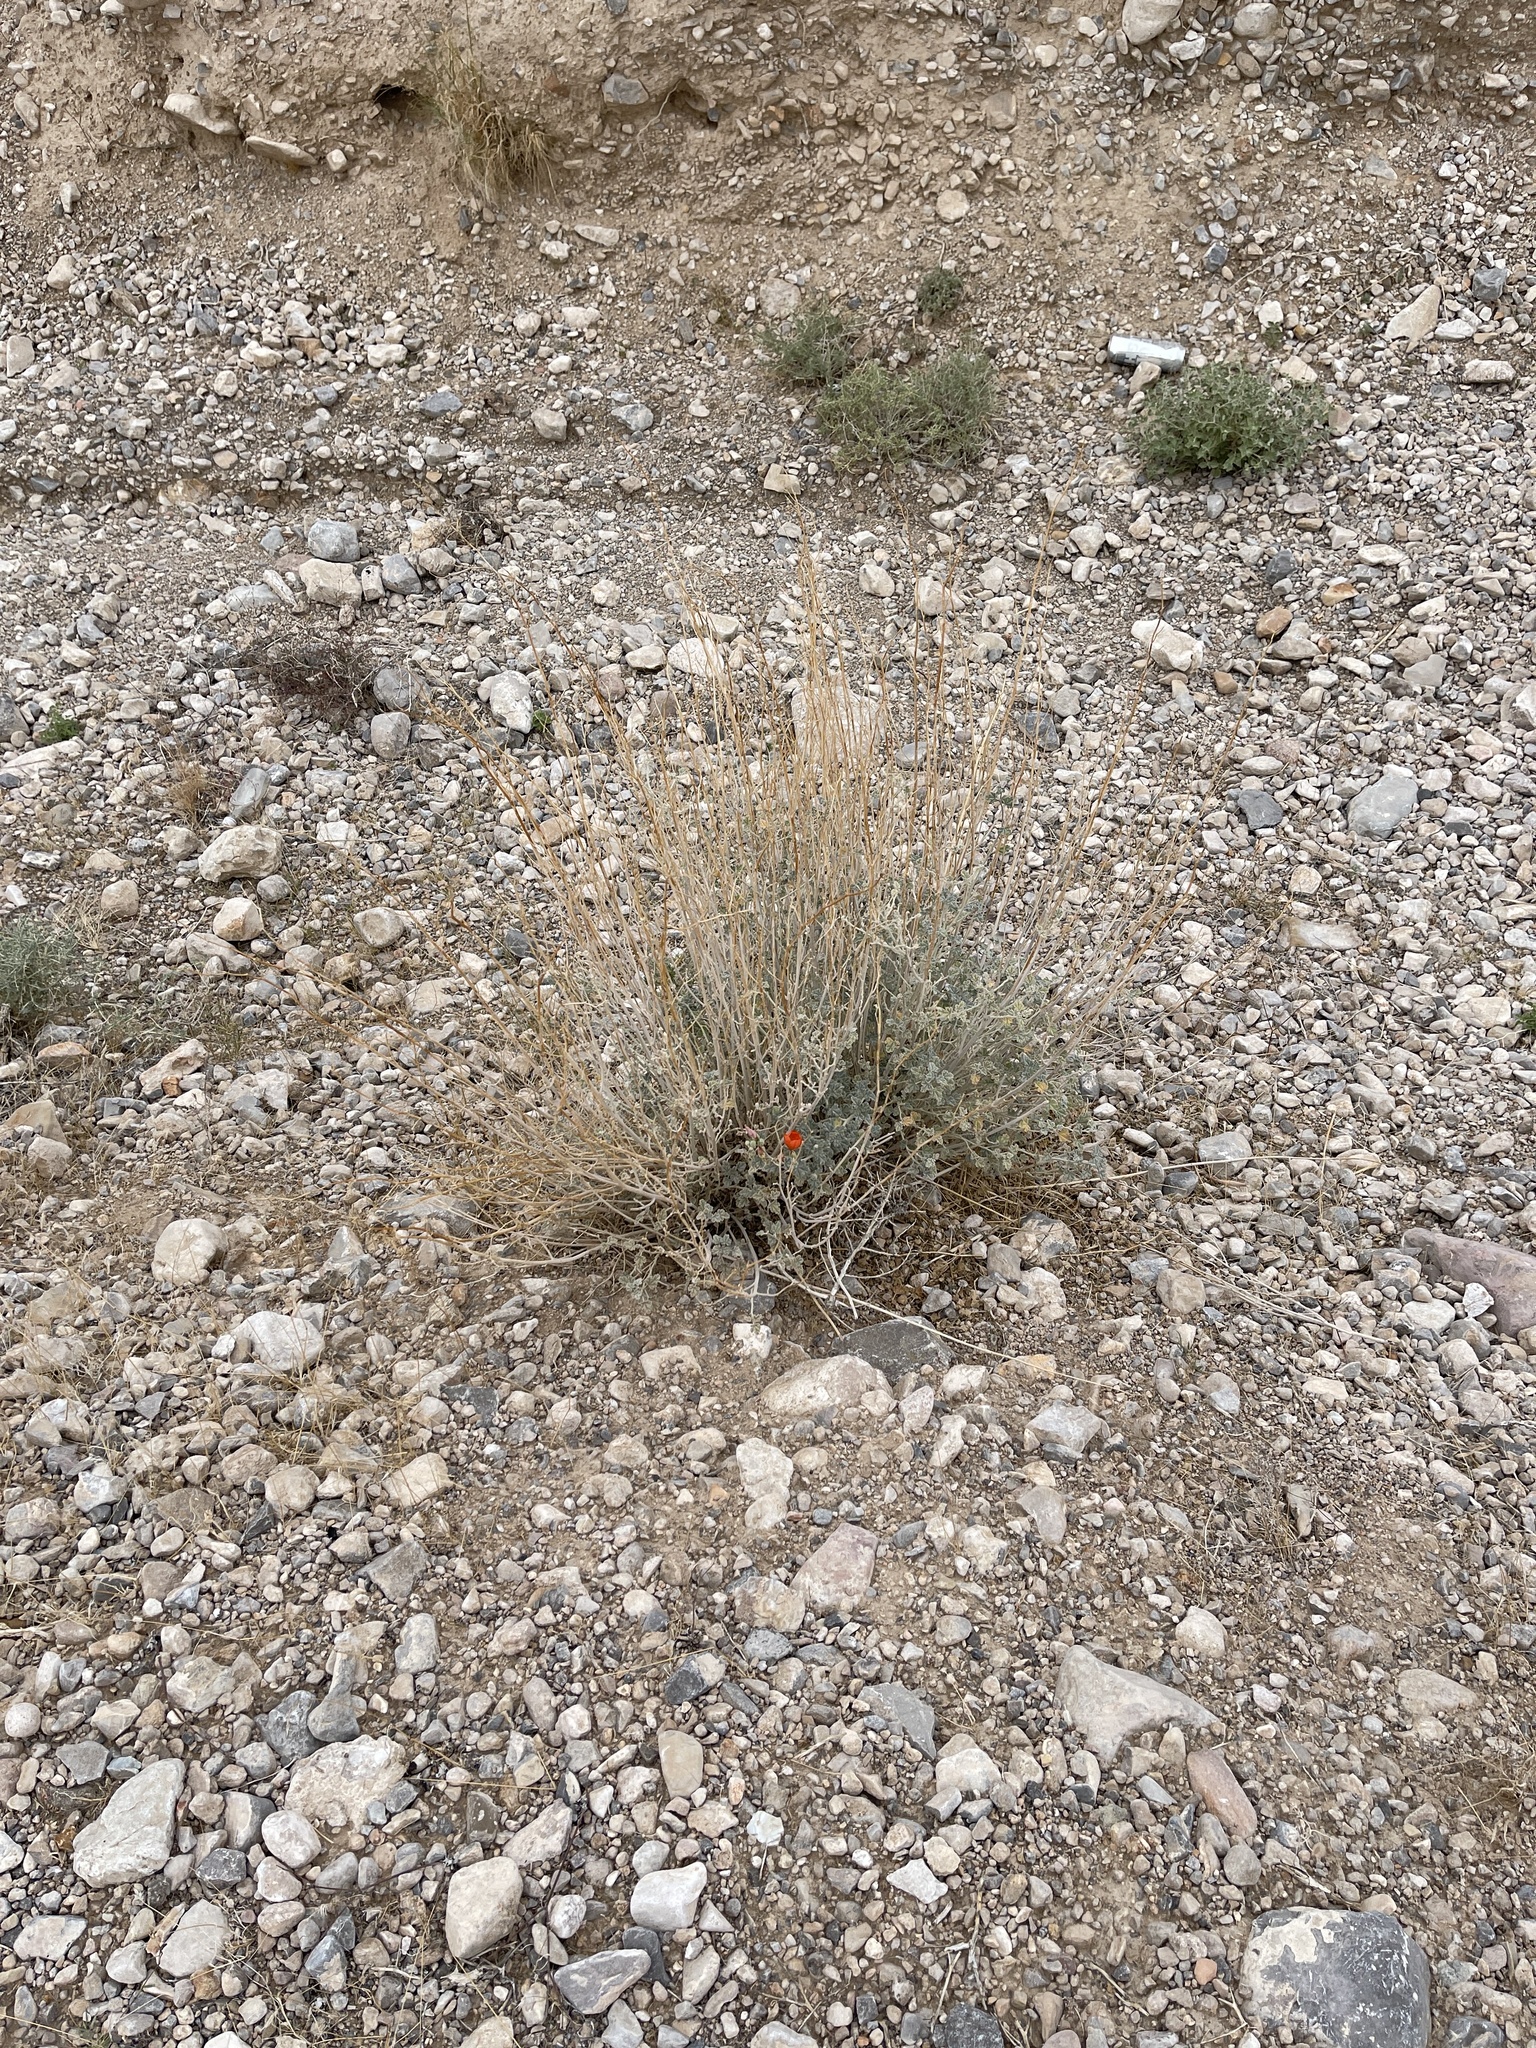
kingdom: Plantae
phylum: Tracheophyta
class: Magnoliopsida
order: Malvales
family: Malvaceae
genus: Sphaeralcea
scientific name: Sphaeralcea ambigua
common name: Apricot globe-mallow
